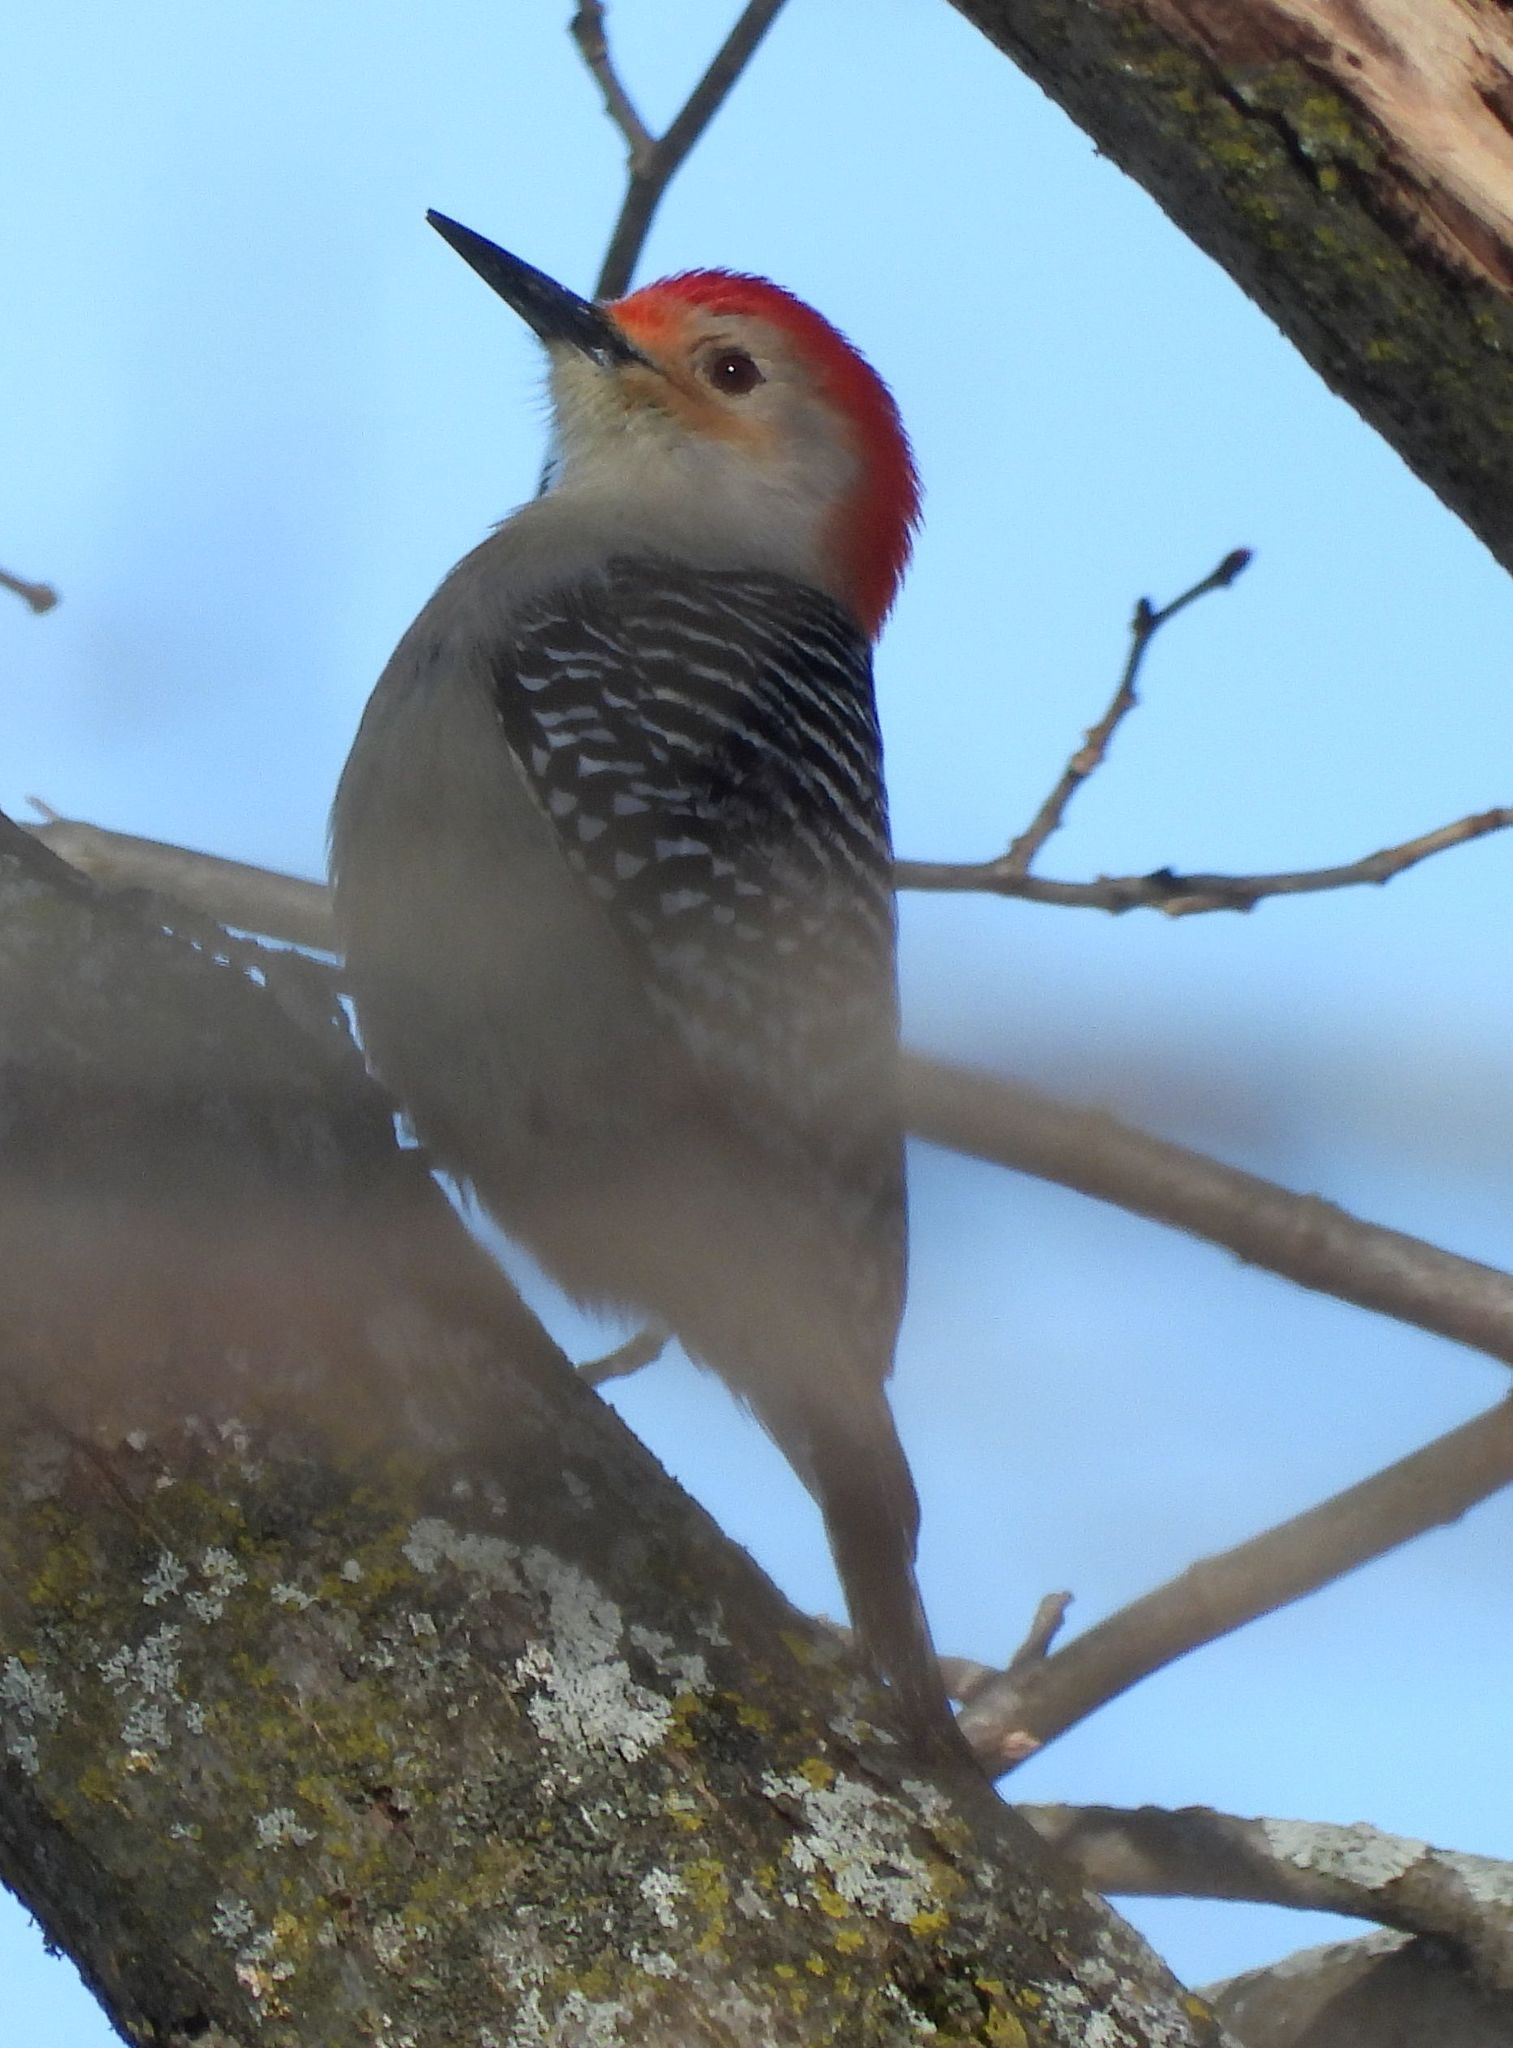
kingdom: Animalia
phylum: Chordata
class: Aves
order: Piciformes
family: Picidae
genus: Melanerpes
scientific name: Melanerpes carolinus
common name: Red-bellied woodpecker
